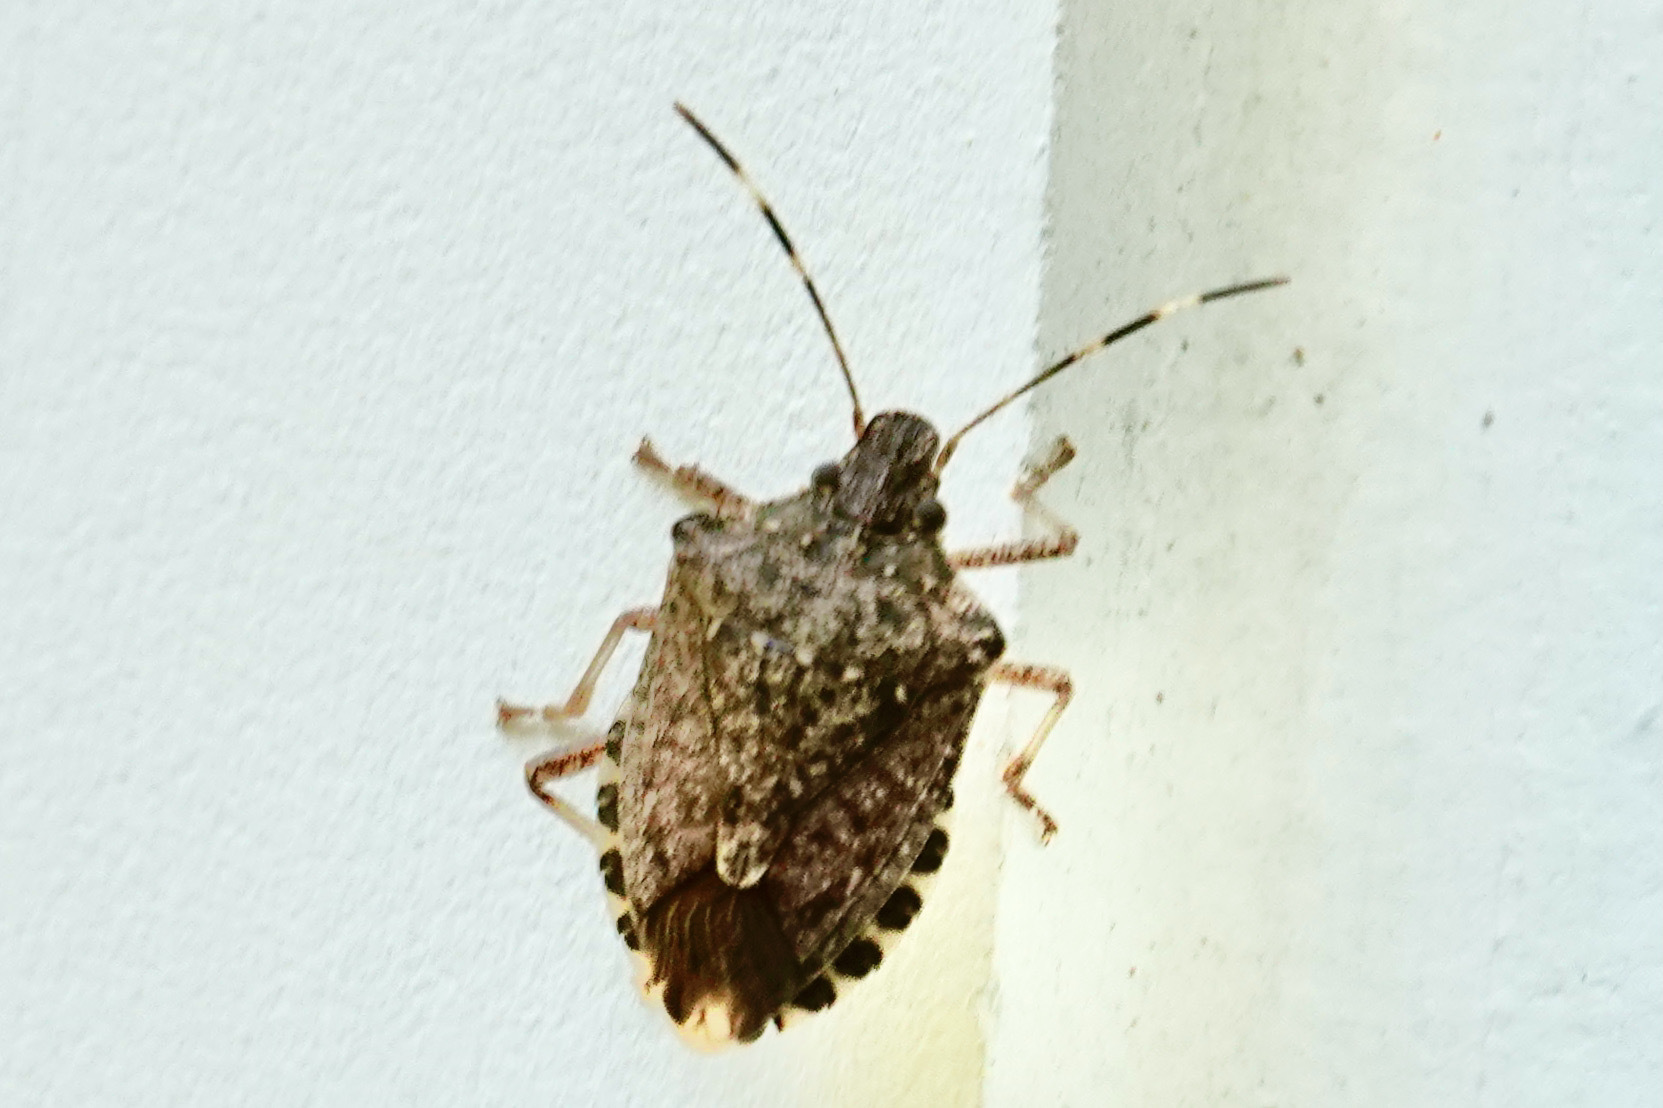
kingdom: Animalia
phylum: Arthropoda
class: Insecta
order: Hemiptera
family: Pentatomidae
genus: Halyomorpha
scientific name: Halyomorpha halys
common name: Brown marmorated stink bug
